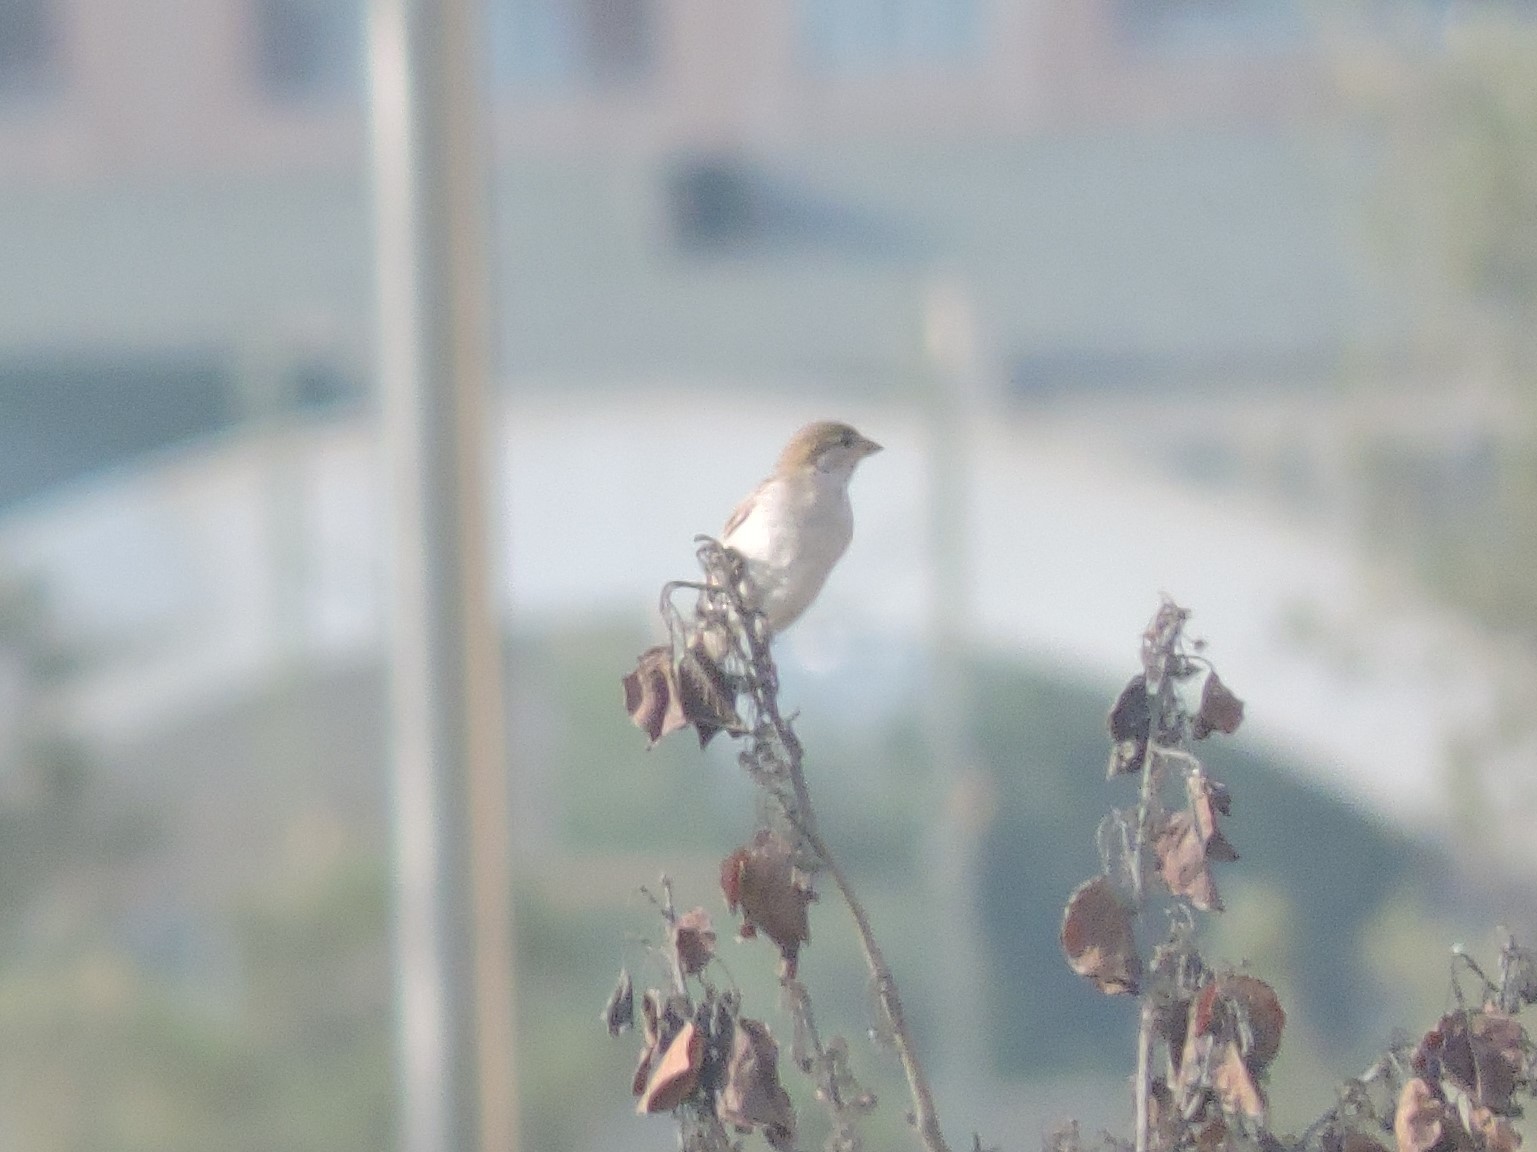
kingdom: Animalia
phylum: Chordata
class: Aves
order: Passeriformes
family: Passeridae
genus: Passer
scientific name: Passer domesticus
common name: House sparrow
